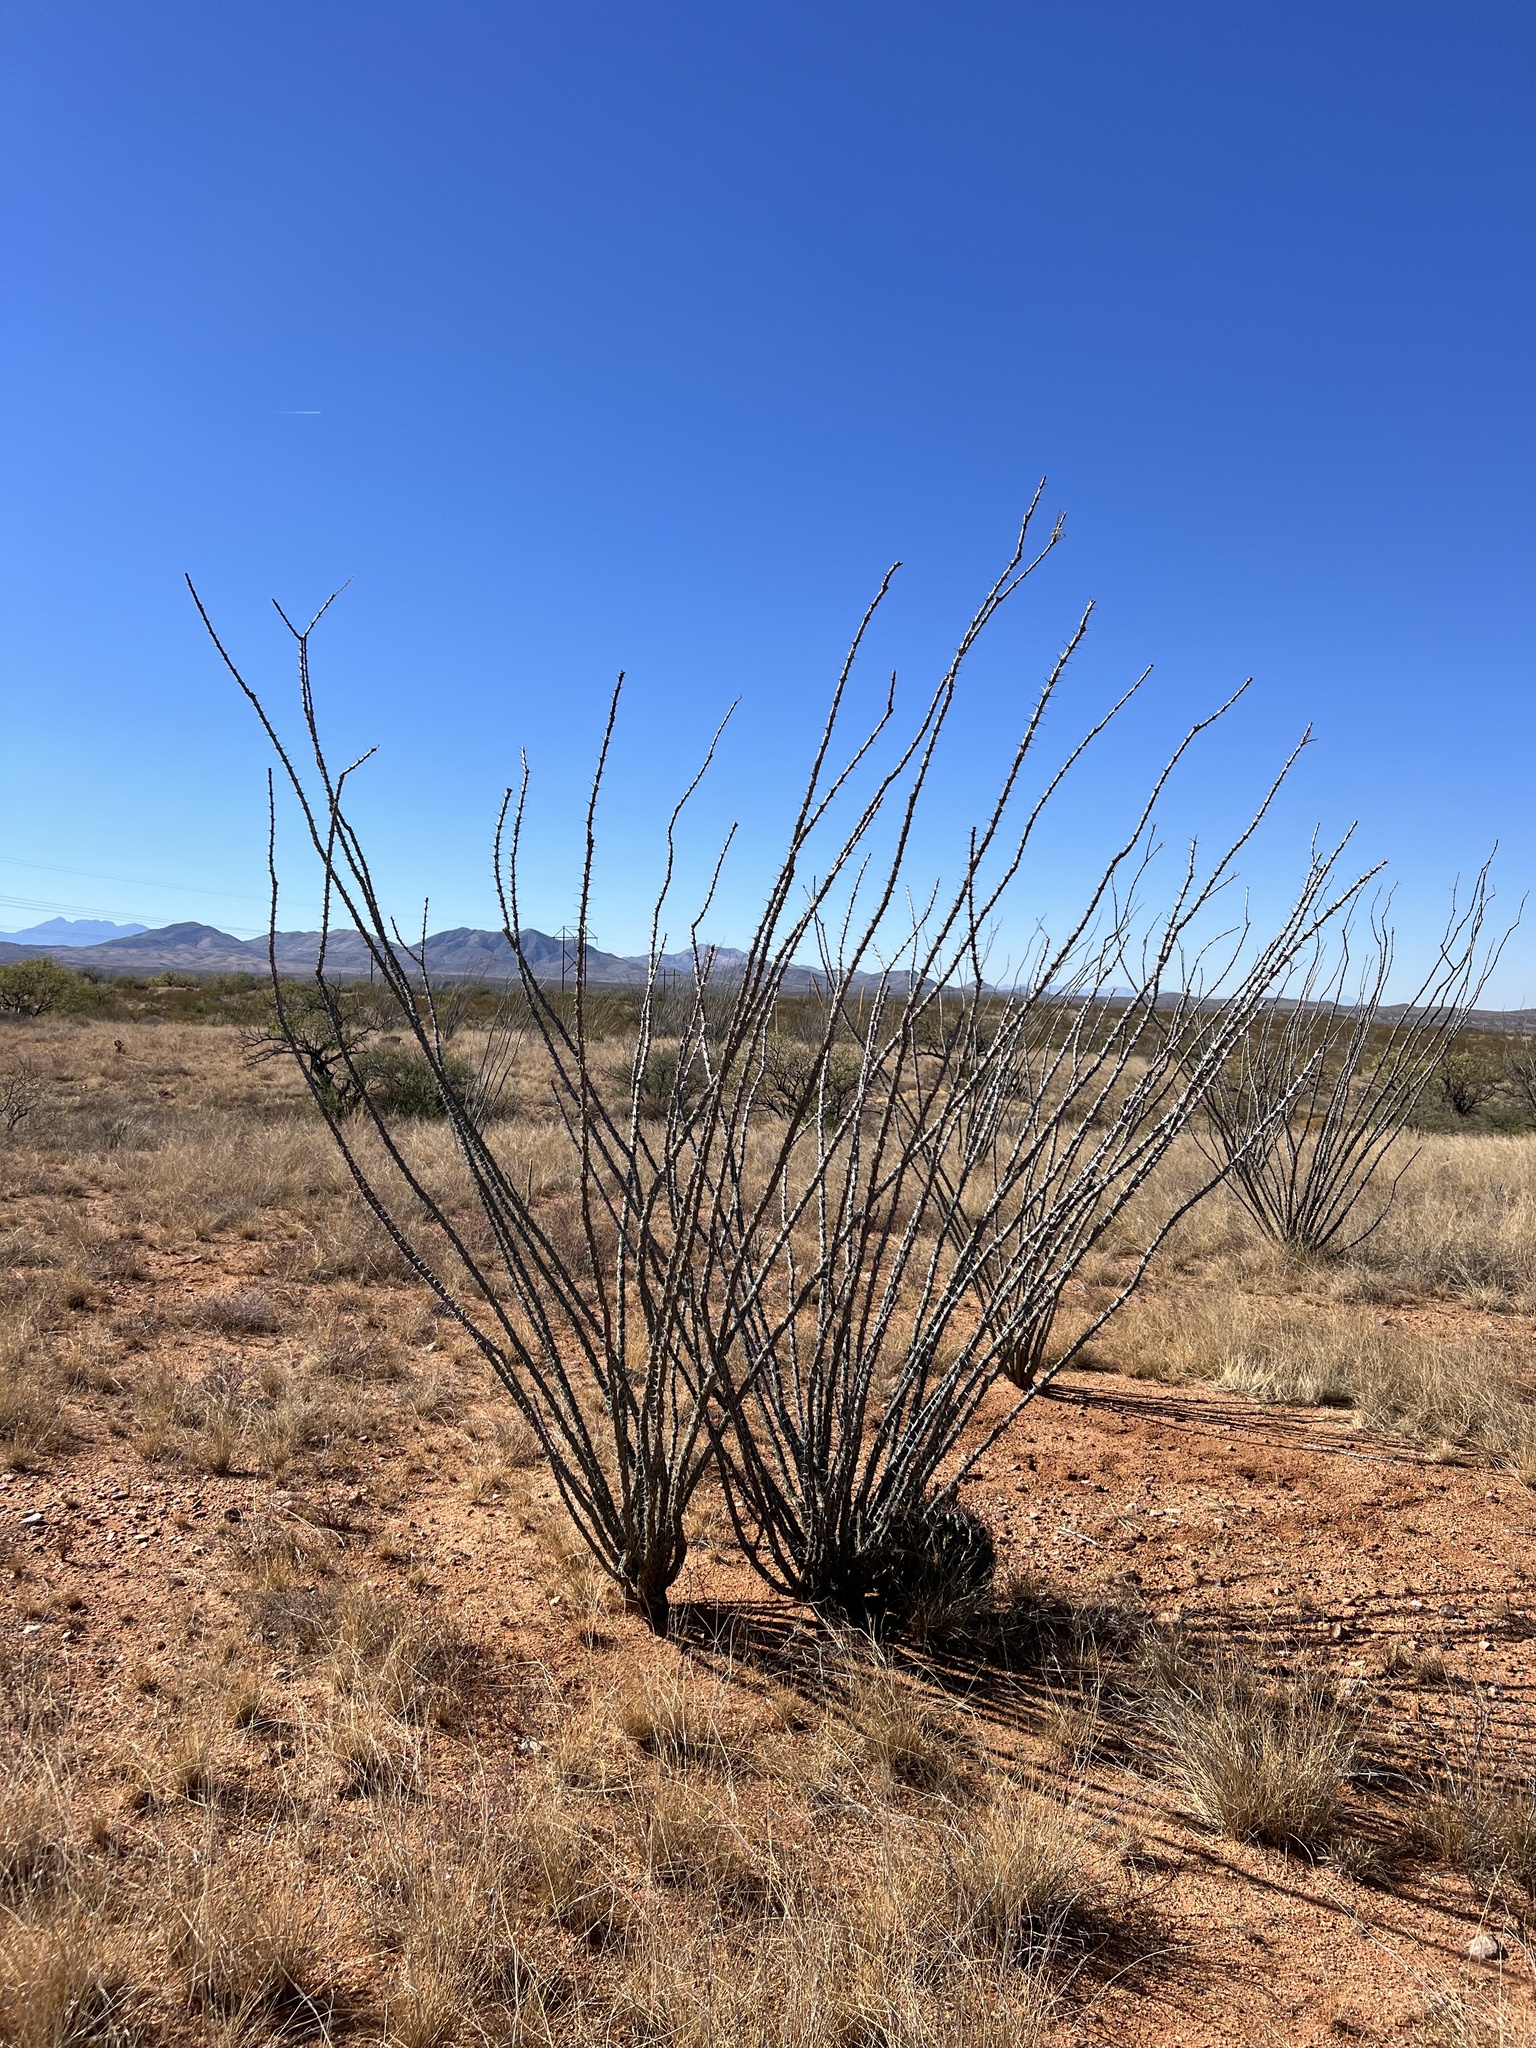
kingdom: Plantae
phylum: Tracheophyta
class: Magnoliopsida
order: Ericales
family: Fouquieriaceae
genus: Fouquieria
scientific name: Fouquieria splendens
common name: Vine-cactus
